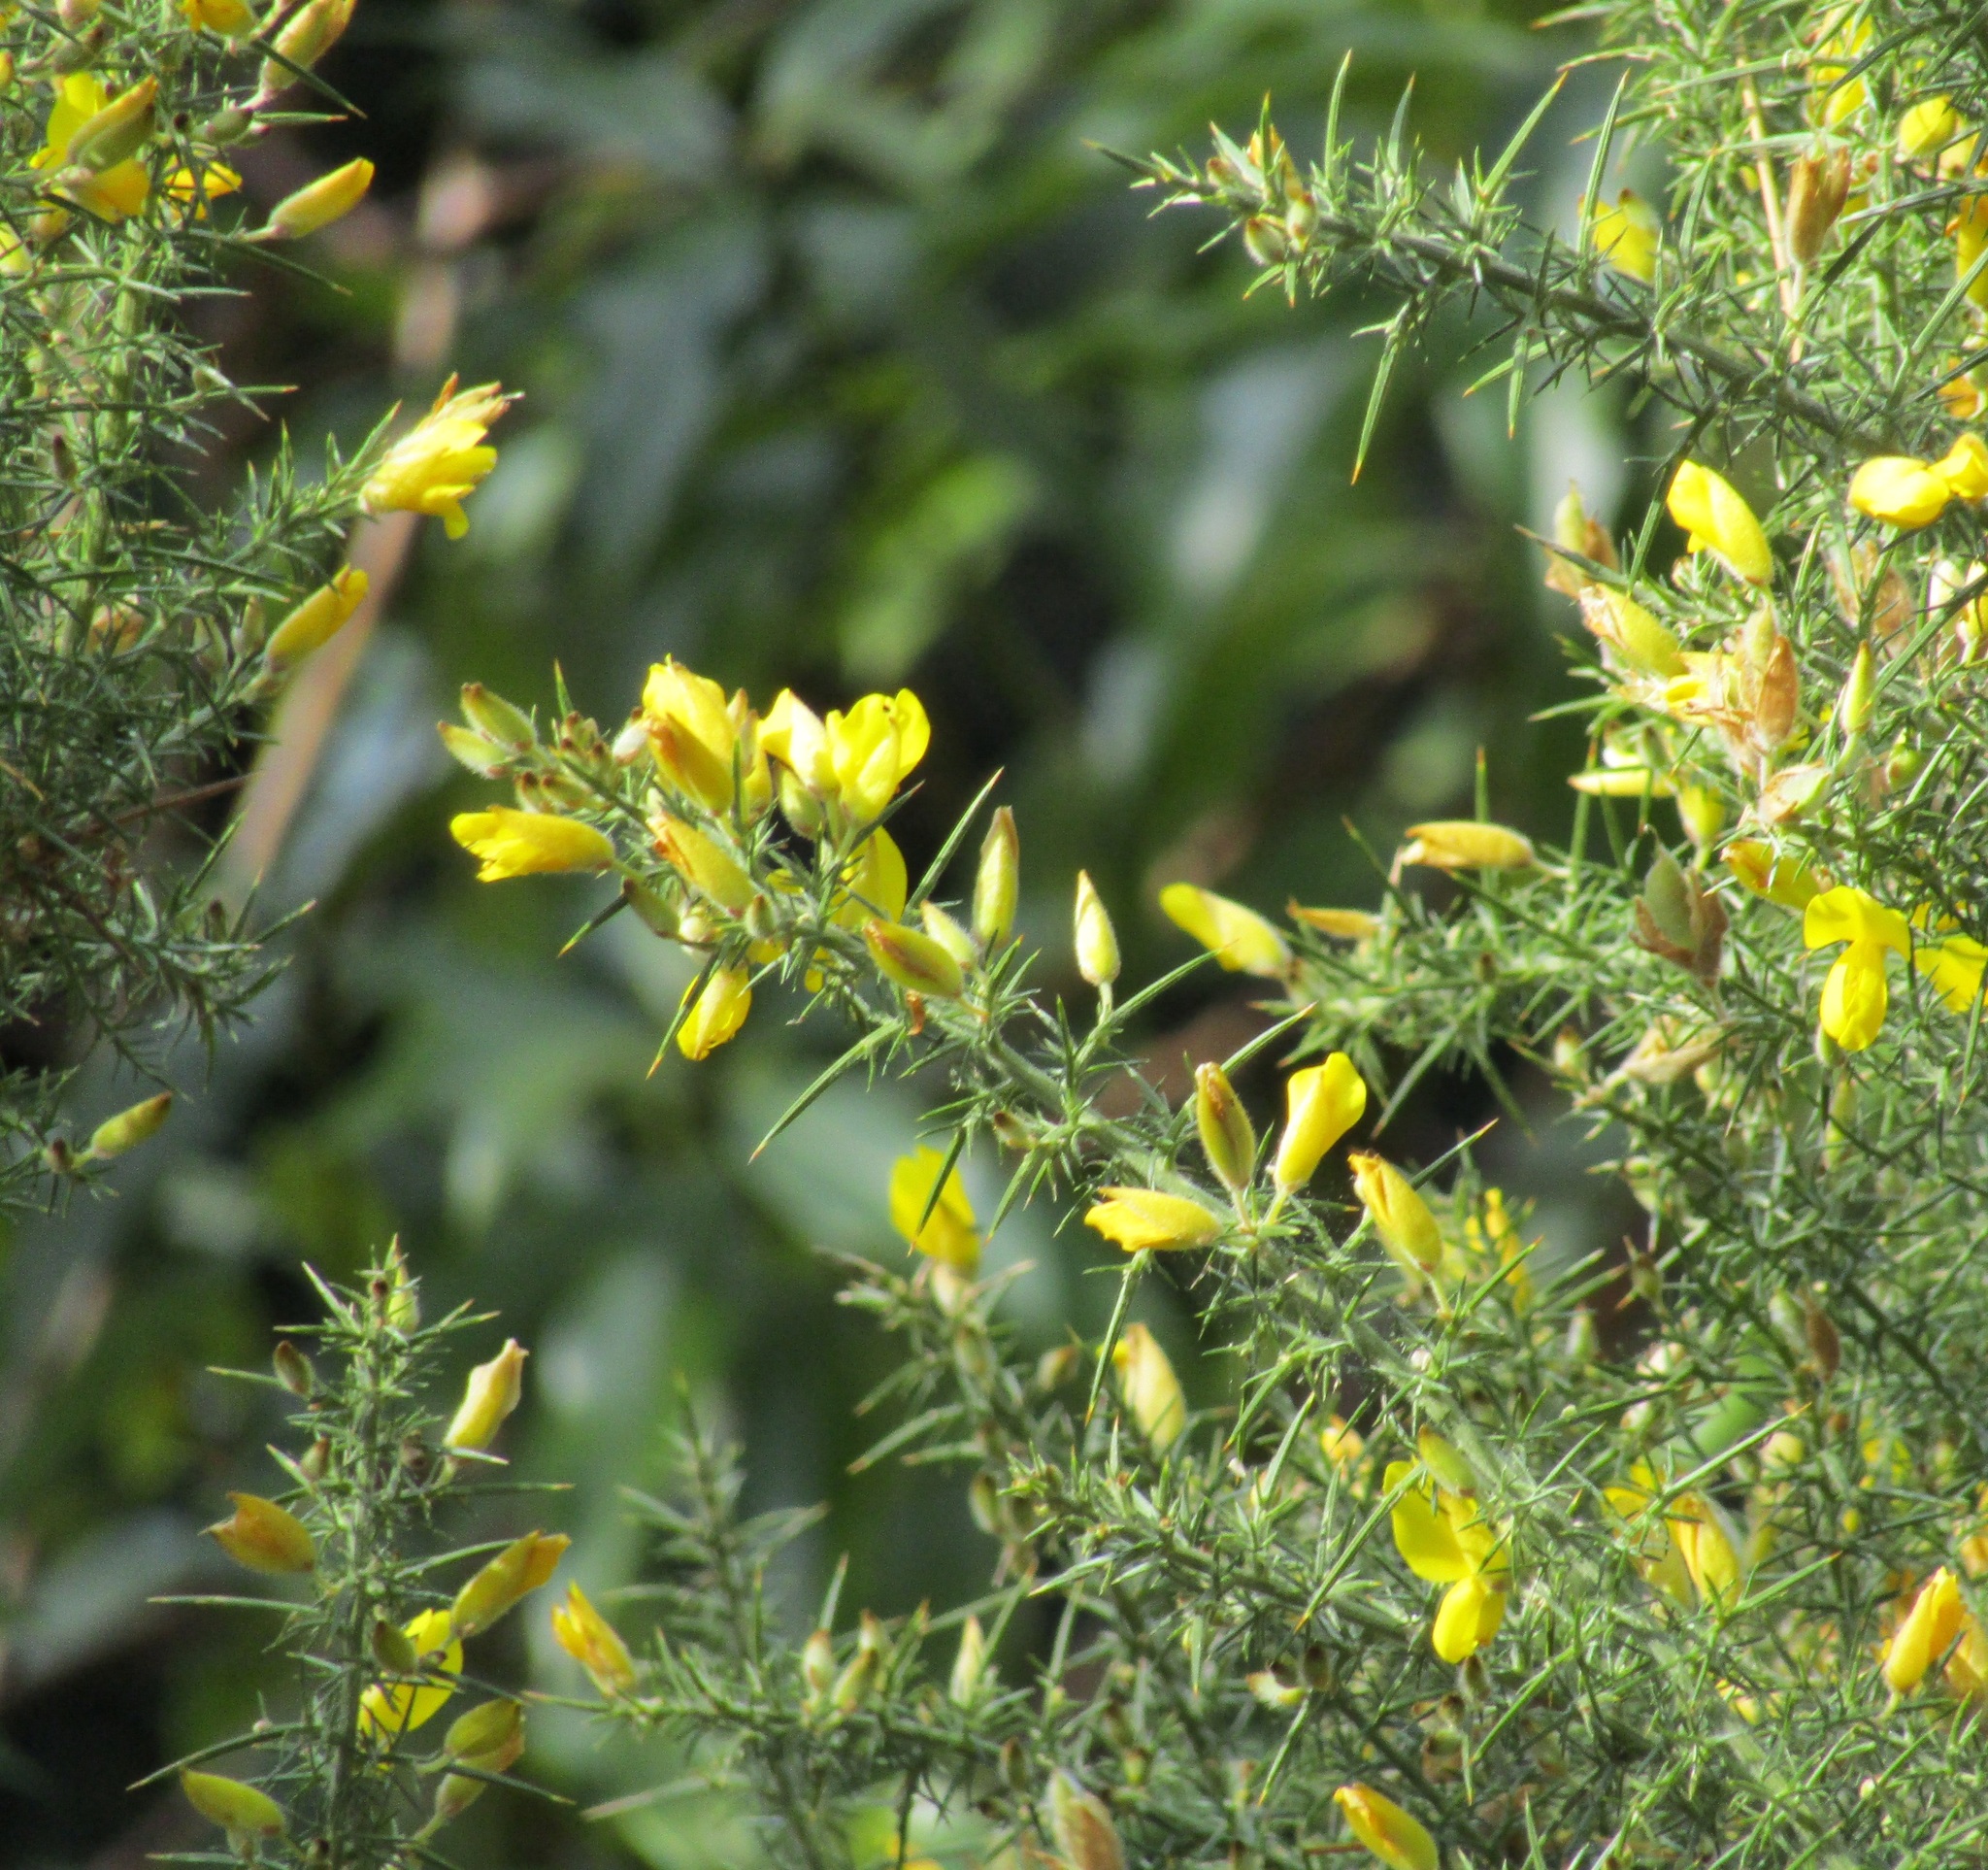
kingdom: Plantae
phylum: Tracheophyta
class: Magnoliopsida
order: Fabales
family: Fabaceae
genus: Ulex
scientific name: Ulex europaeus
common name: Common gorse
